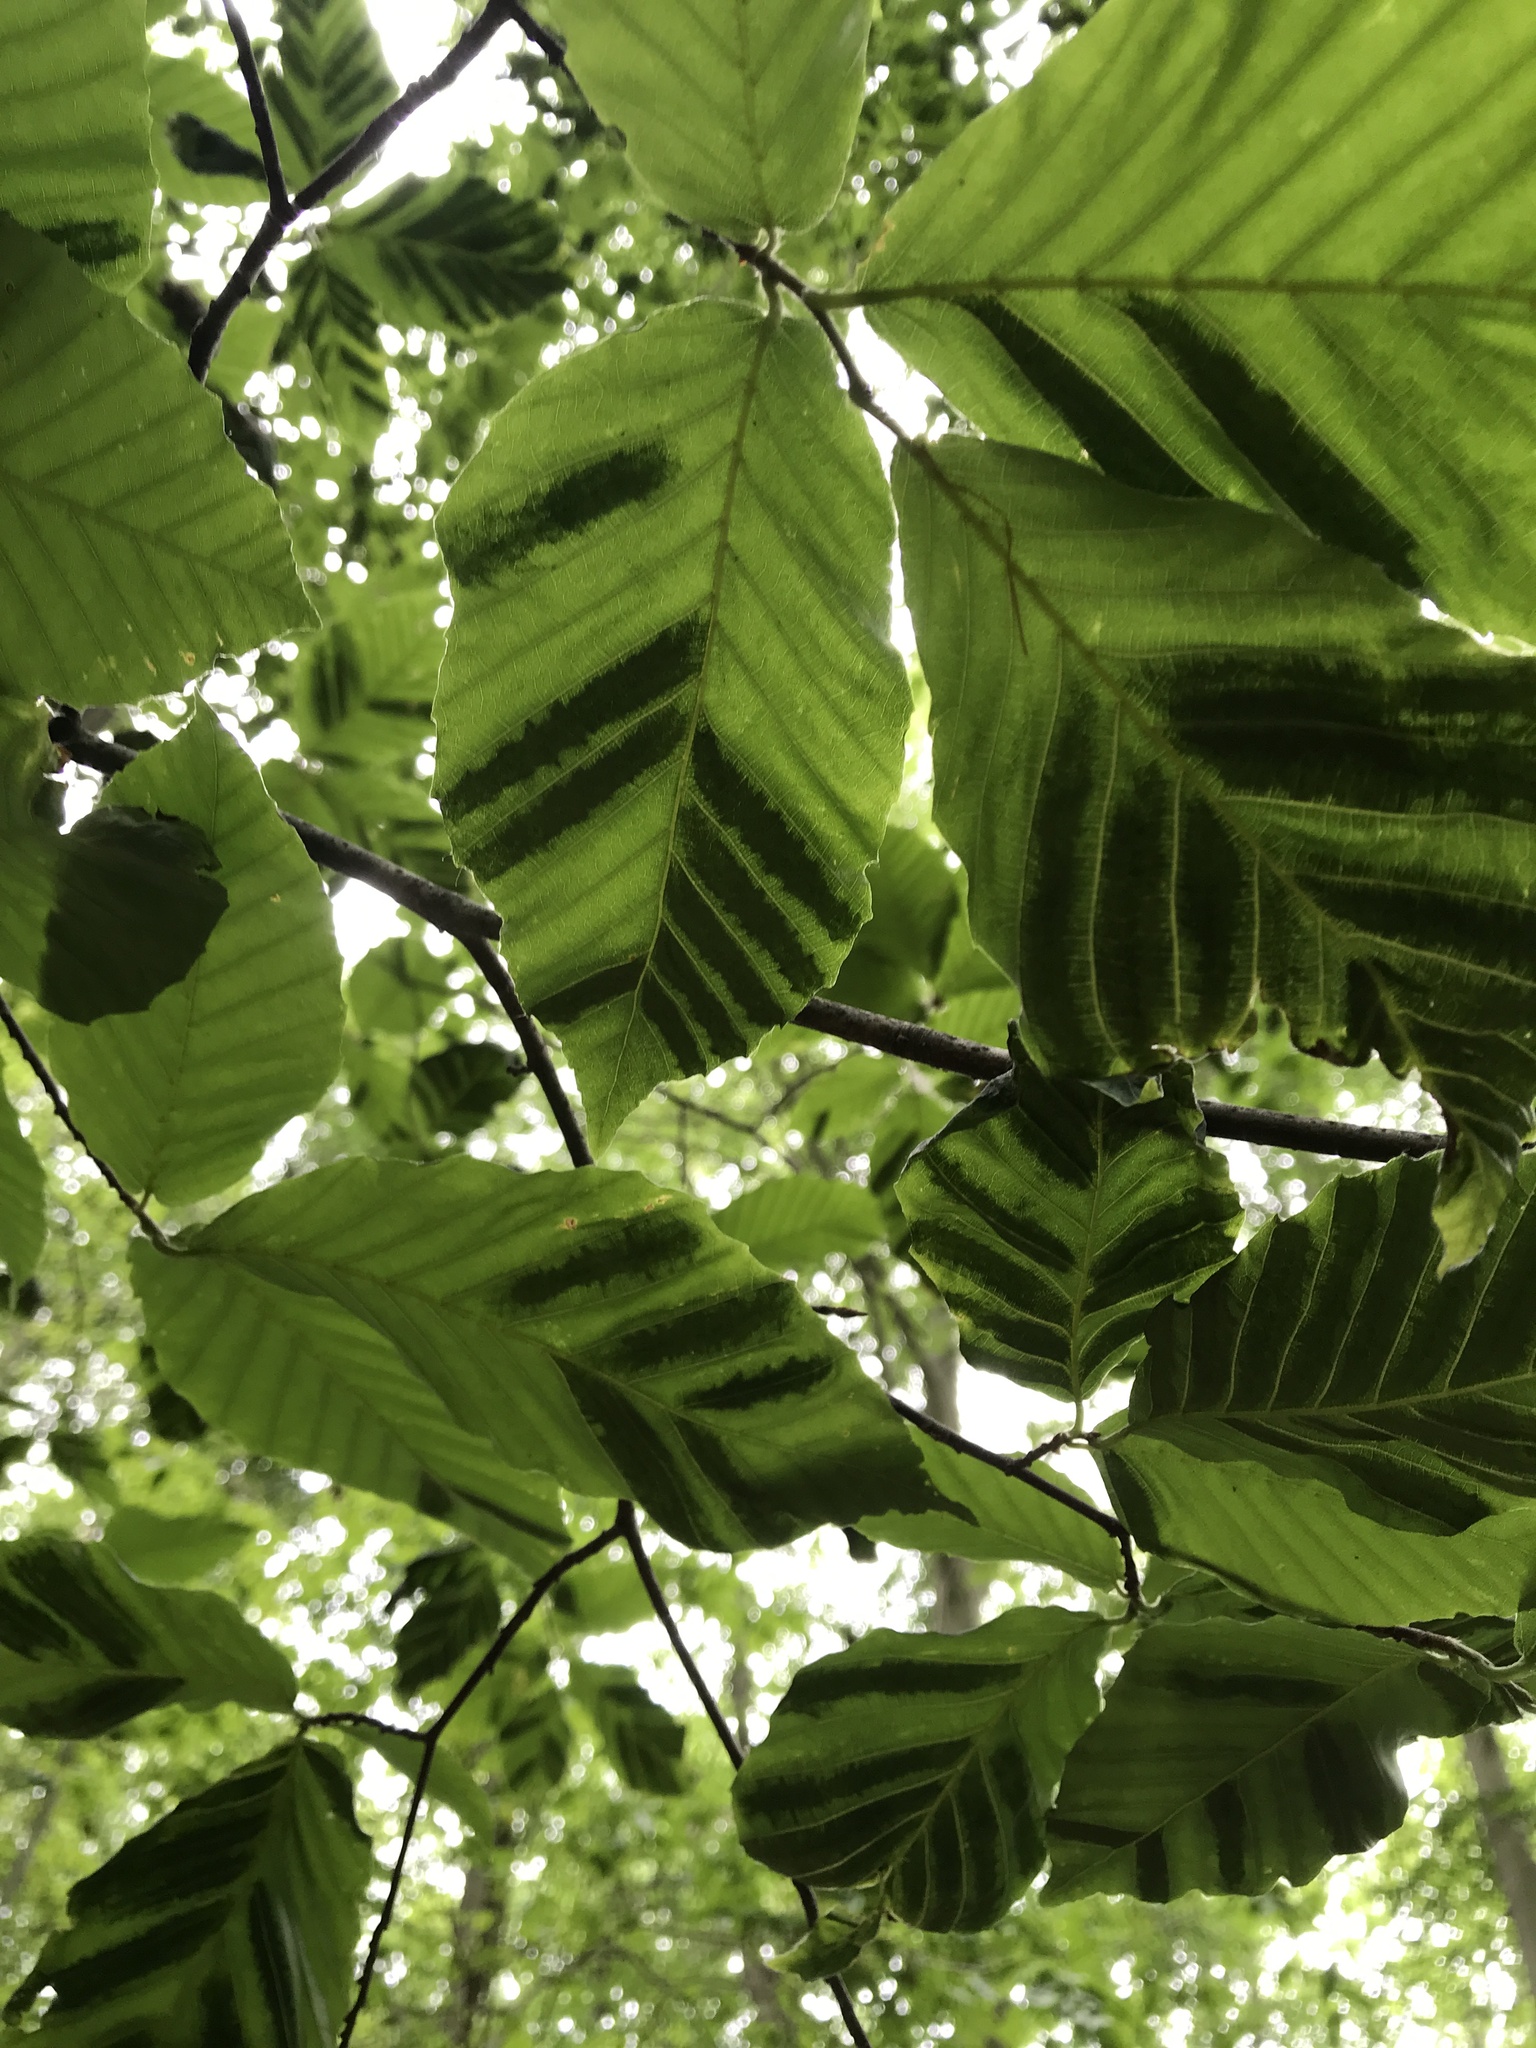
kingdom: Animalia
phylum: Nematoda
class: Chromadorea
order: Rhabditida
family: Anguinidae
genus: Litylenchus
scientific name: Litylenchus crenatae
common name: Beech leaf disease
